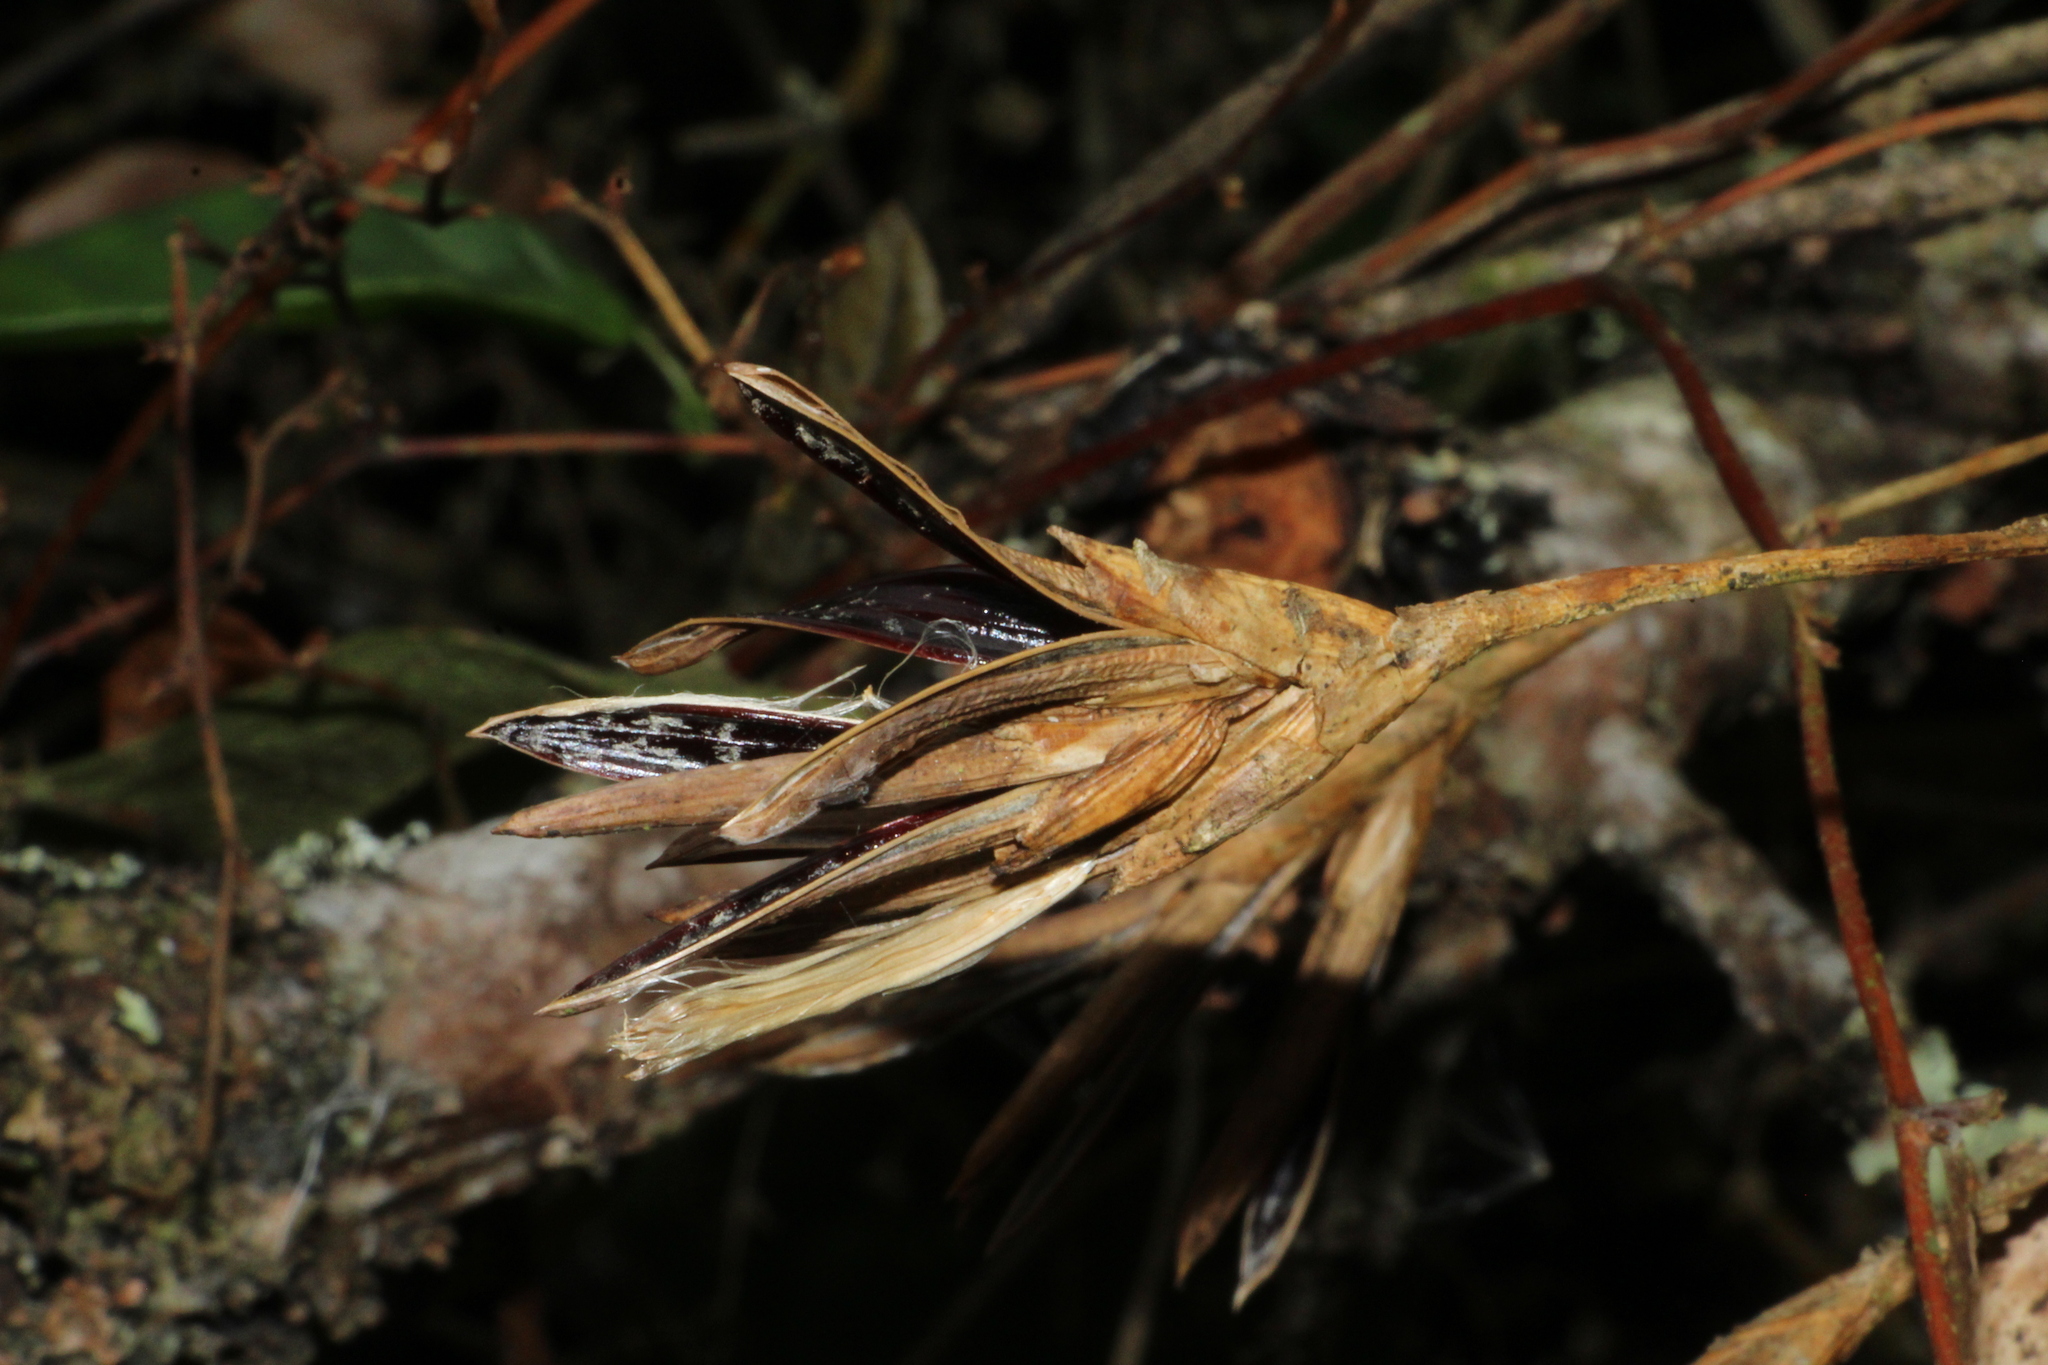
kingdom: Plantae
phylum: Tracheophyta
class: Liliopsida
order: Poales
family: Bromeliaceae
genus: Tillandsia
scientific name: Tillandsia complanata
